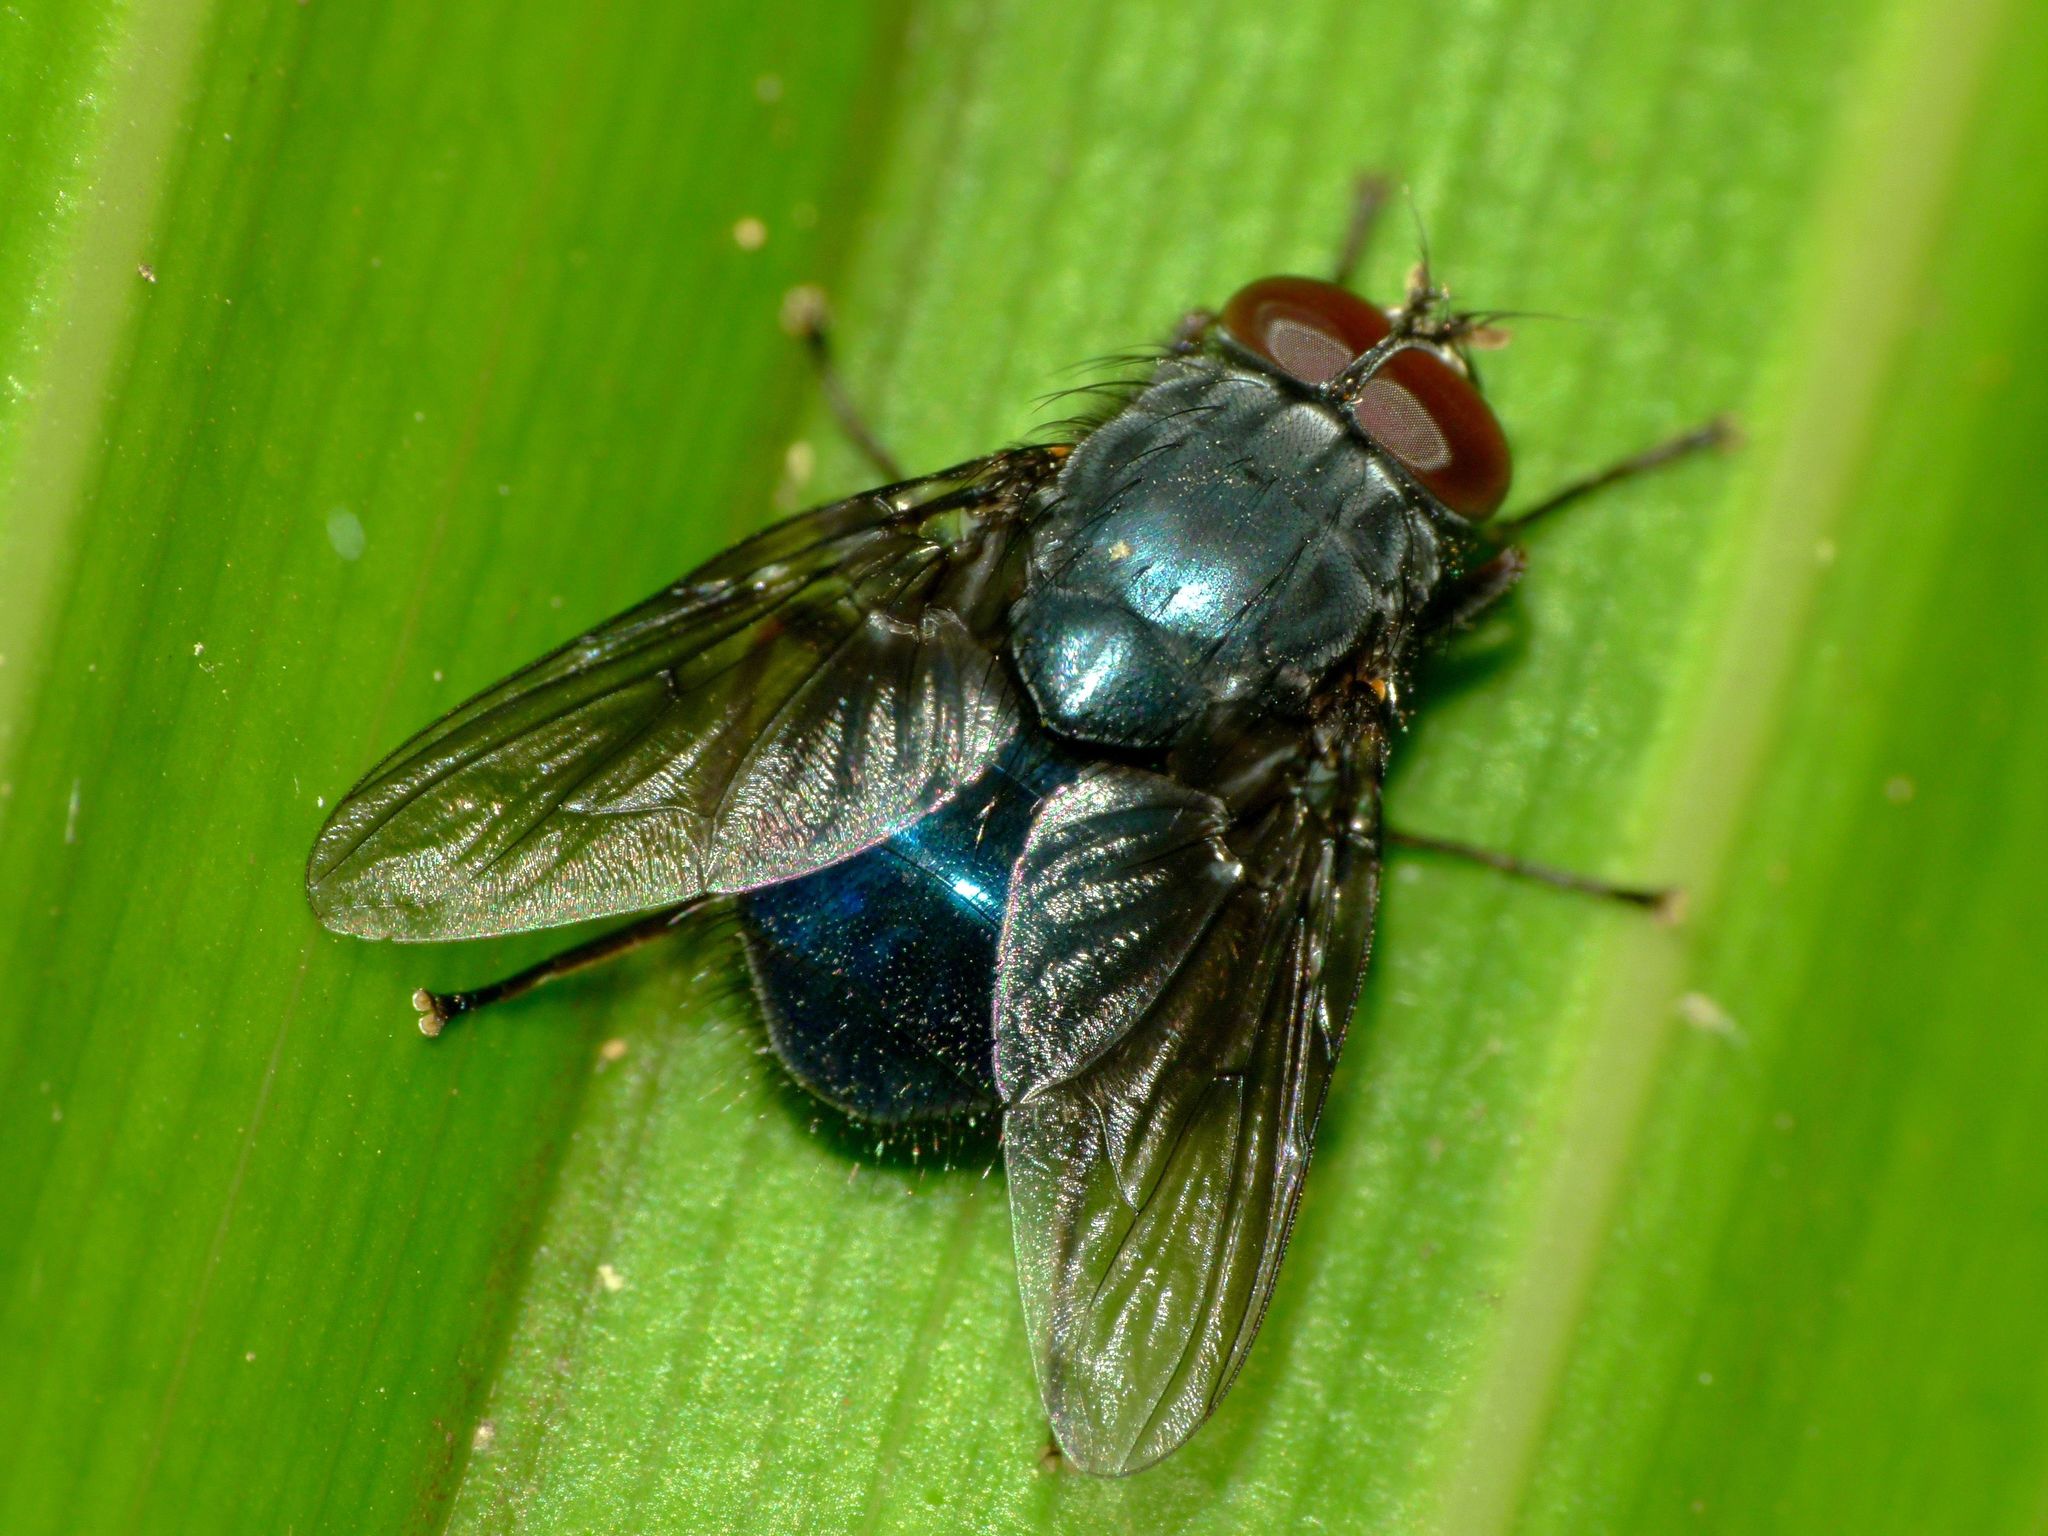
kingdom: Animalia
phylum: Arthropoda
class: Insecta
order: Diptera
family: Muscidae
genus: Calliphoroides
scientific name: Calliphoroides antennatis
